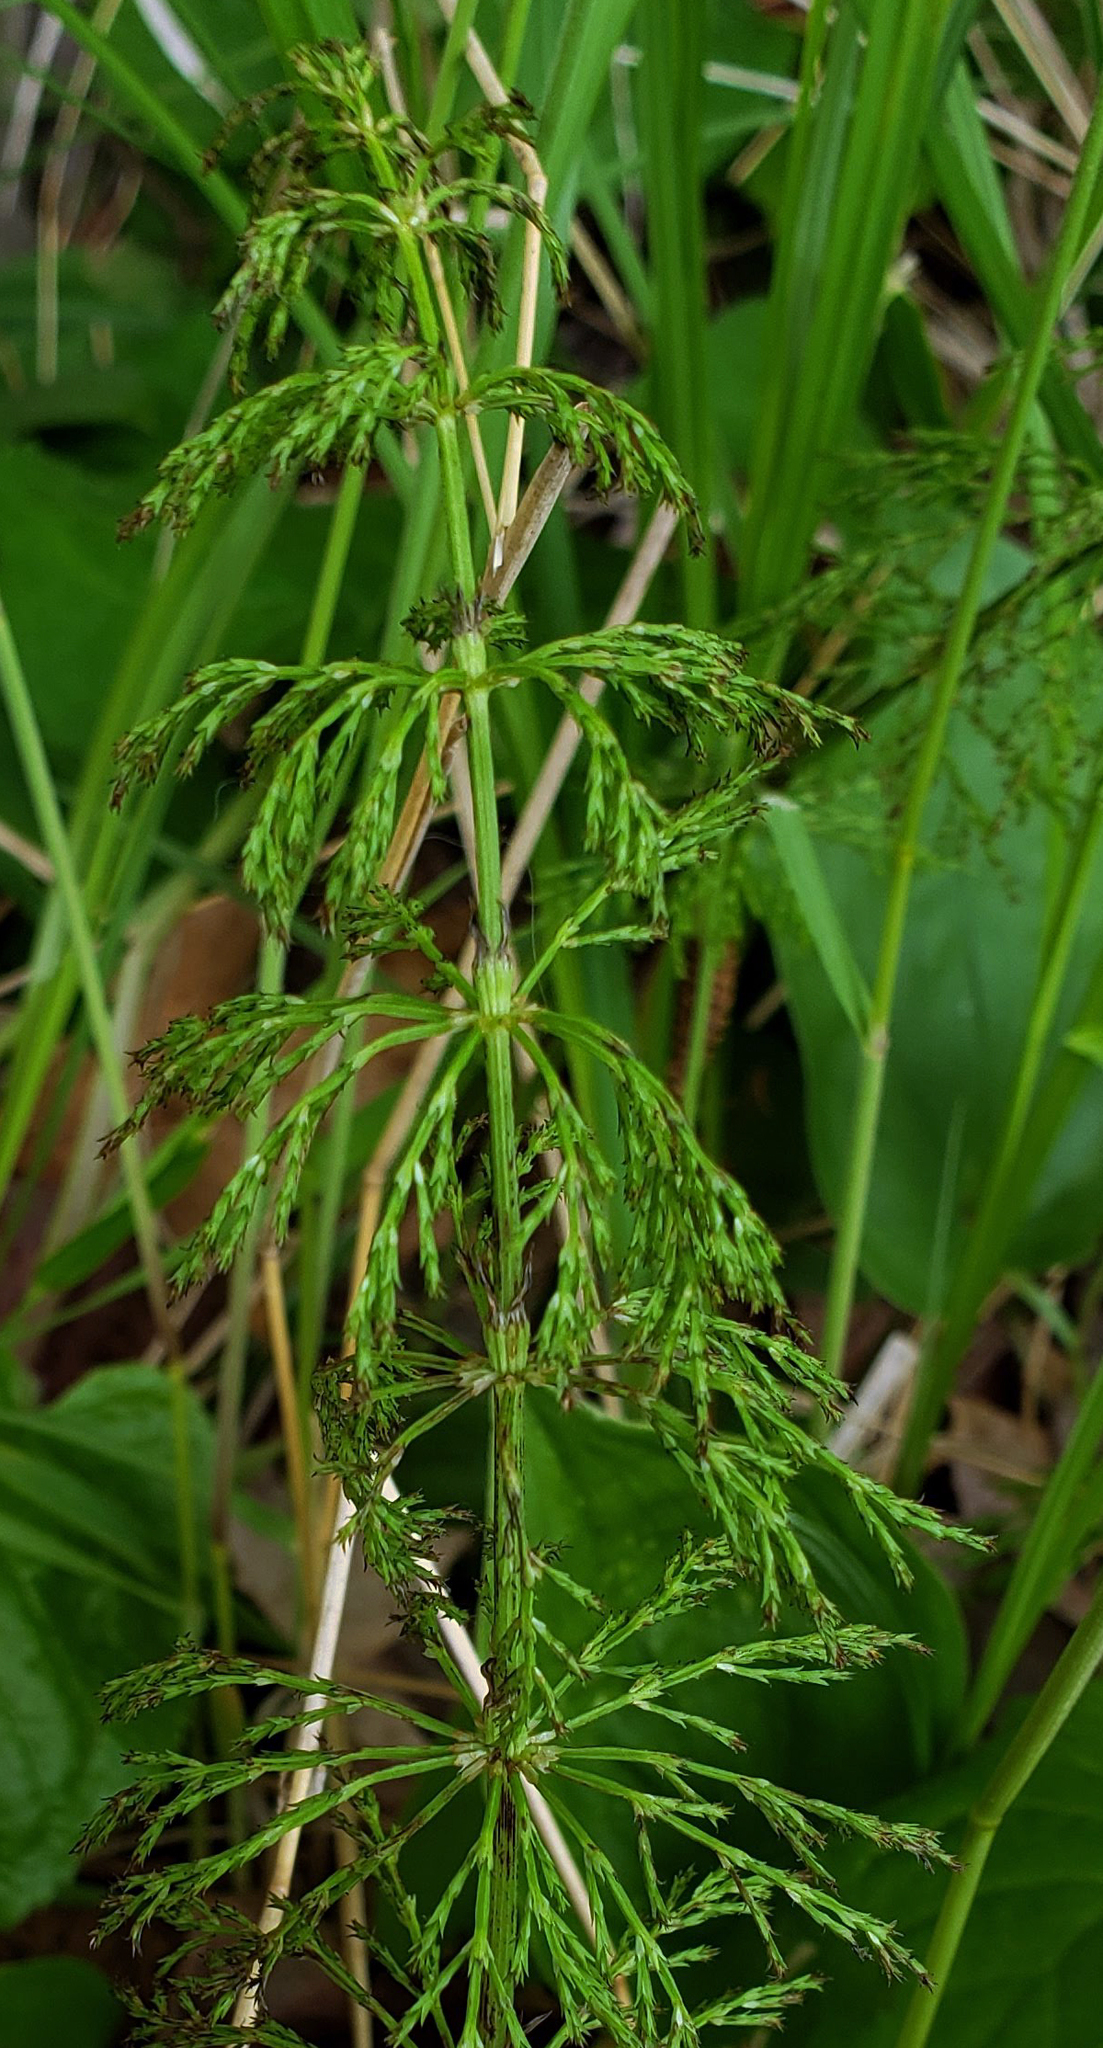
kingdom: Plantae
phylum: Tracheophyta
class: Polypodiopsida
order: Equisetales
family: Equisetaceae
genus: Equisetum
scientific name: Equisetum sylvaticum
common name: Wood horsetail
